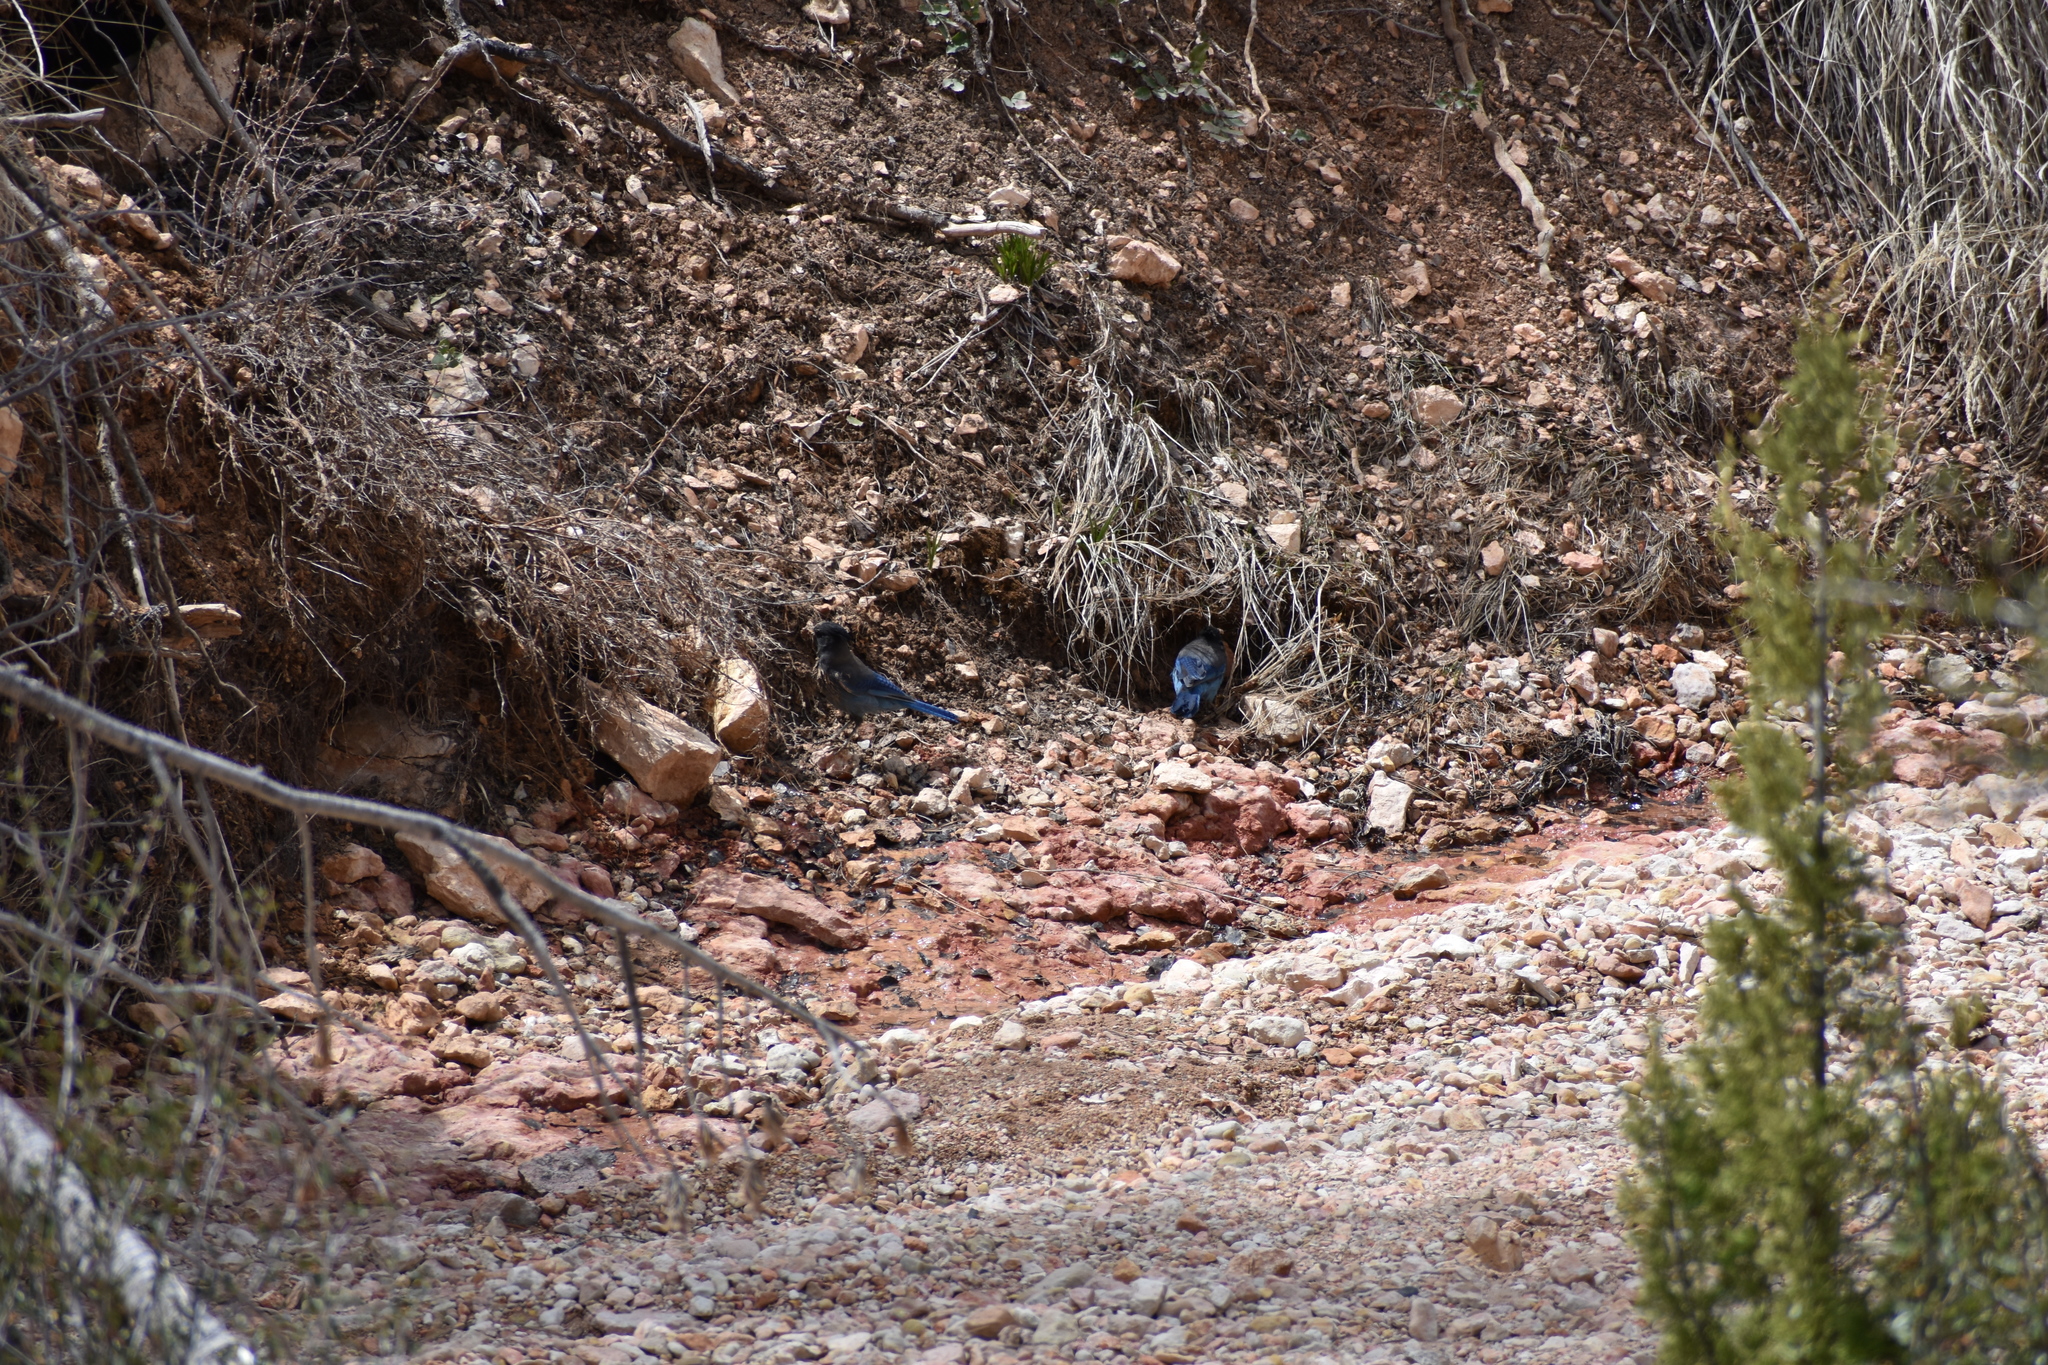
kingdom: Animalia
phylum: Chordata
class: Aves
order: Passeriformes
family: Corvidae
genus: Cyanocitta
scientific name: Cyanocitta stelleri
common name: Steller's jay
